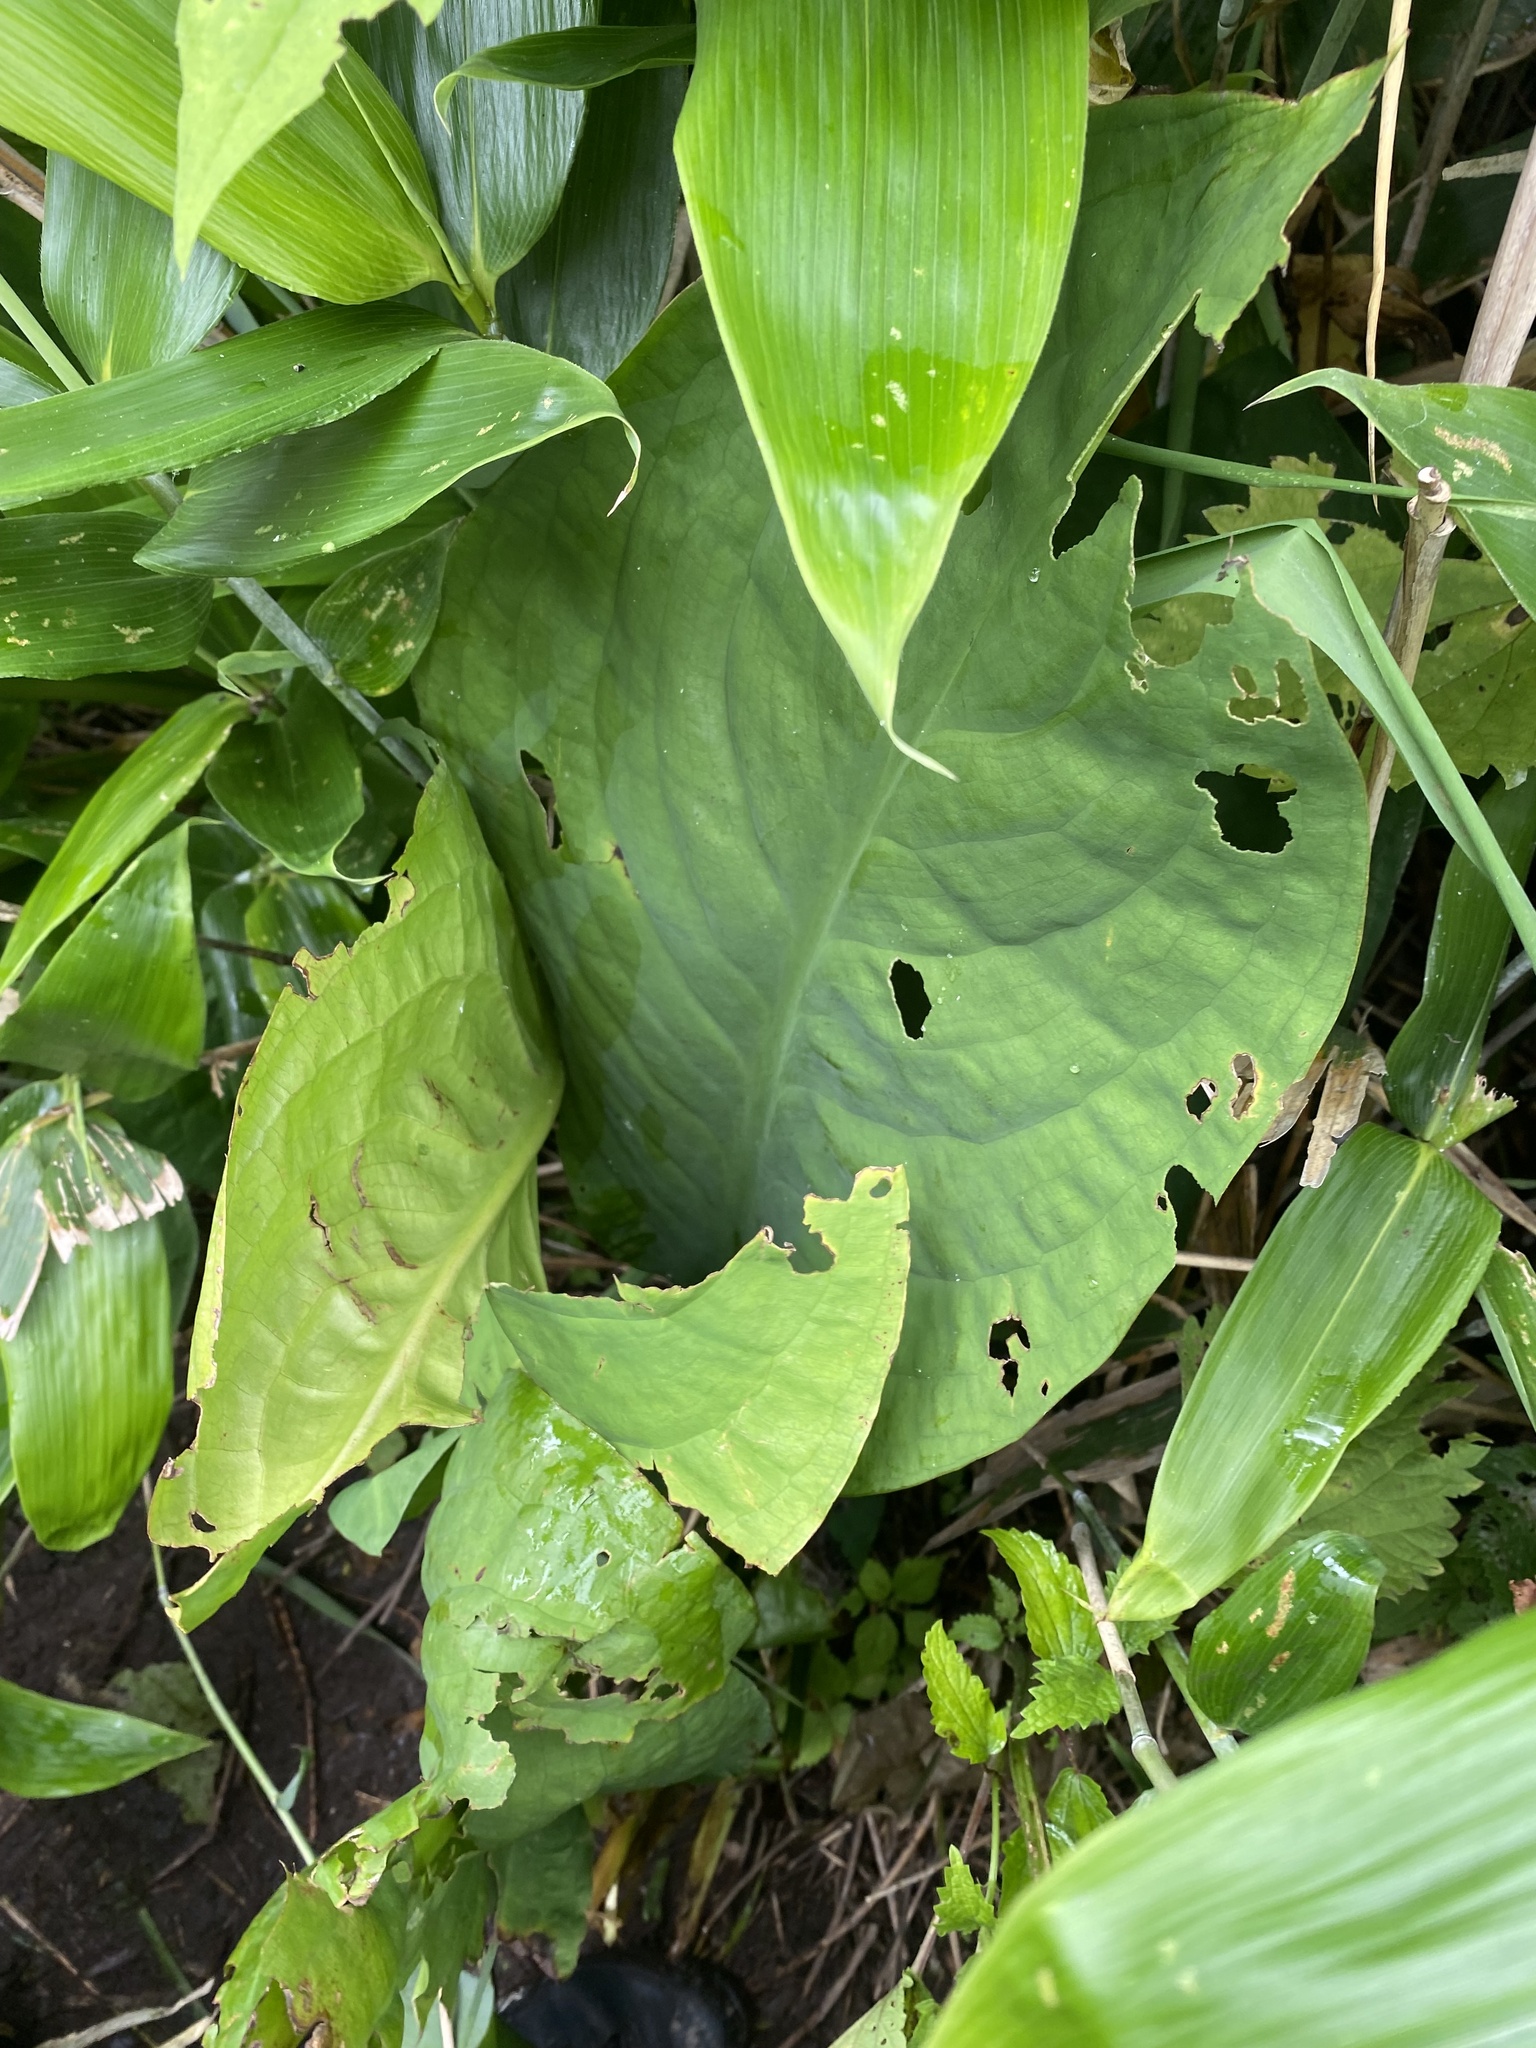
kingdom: Plantae
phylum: Tracheophyta
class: Liliopsida
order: Alismatales
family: Araceae
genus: Lysichiton
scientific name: Lysichiton camtschatcensis
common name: Asian skunk-cabbage
